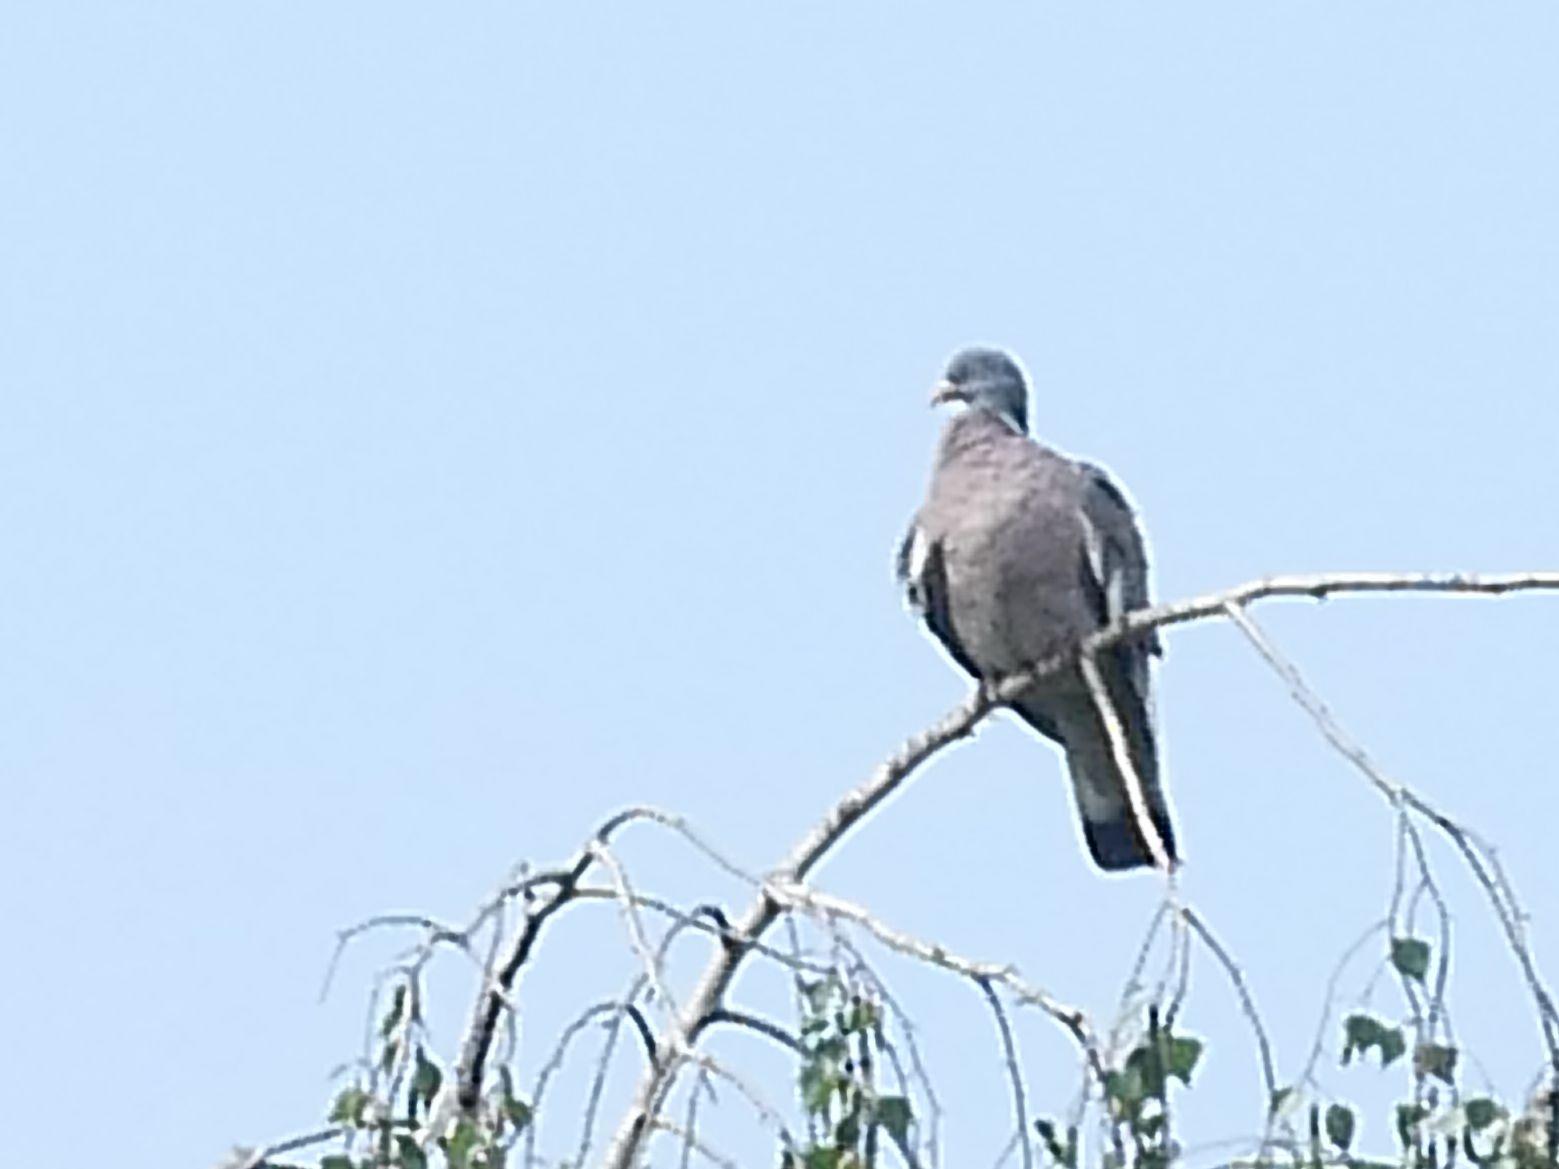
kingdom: Animalia
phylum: Chordata
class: Aves
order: Columbiformes
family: Columbidae
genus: Columba
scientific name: Columba palumbus
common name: Common wood pigeon
